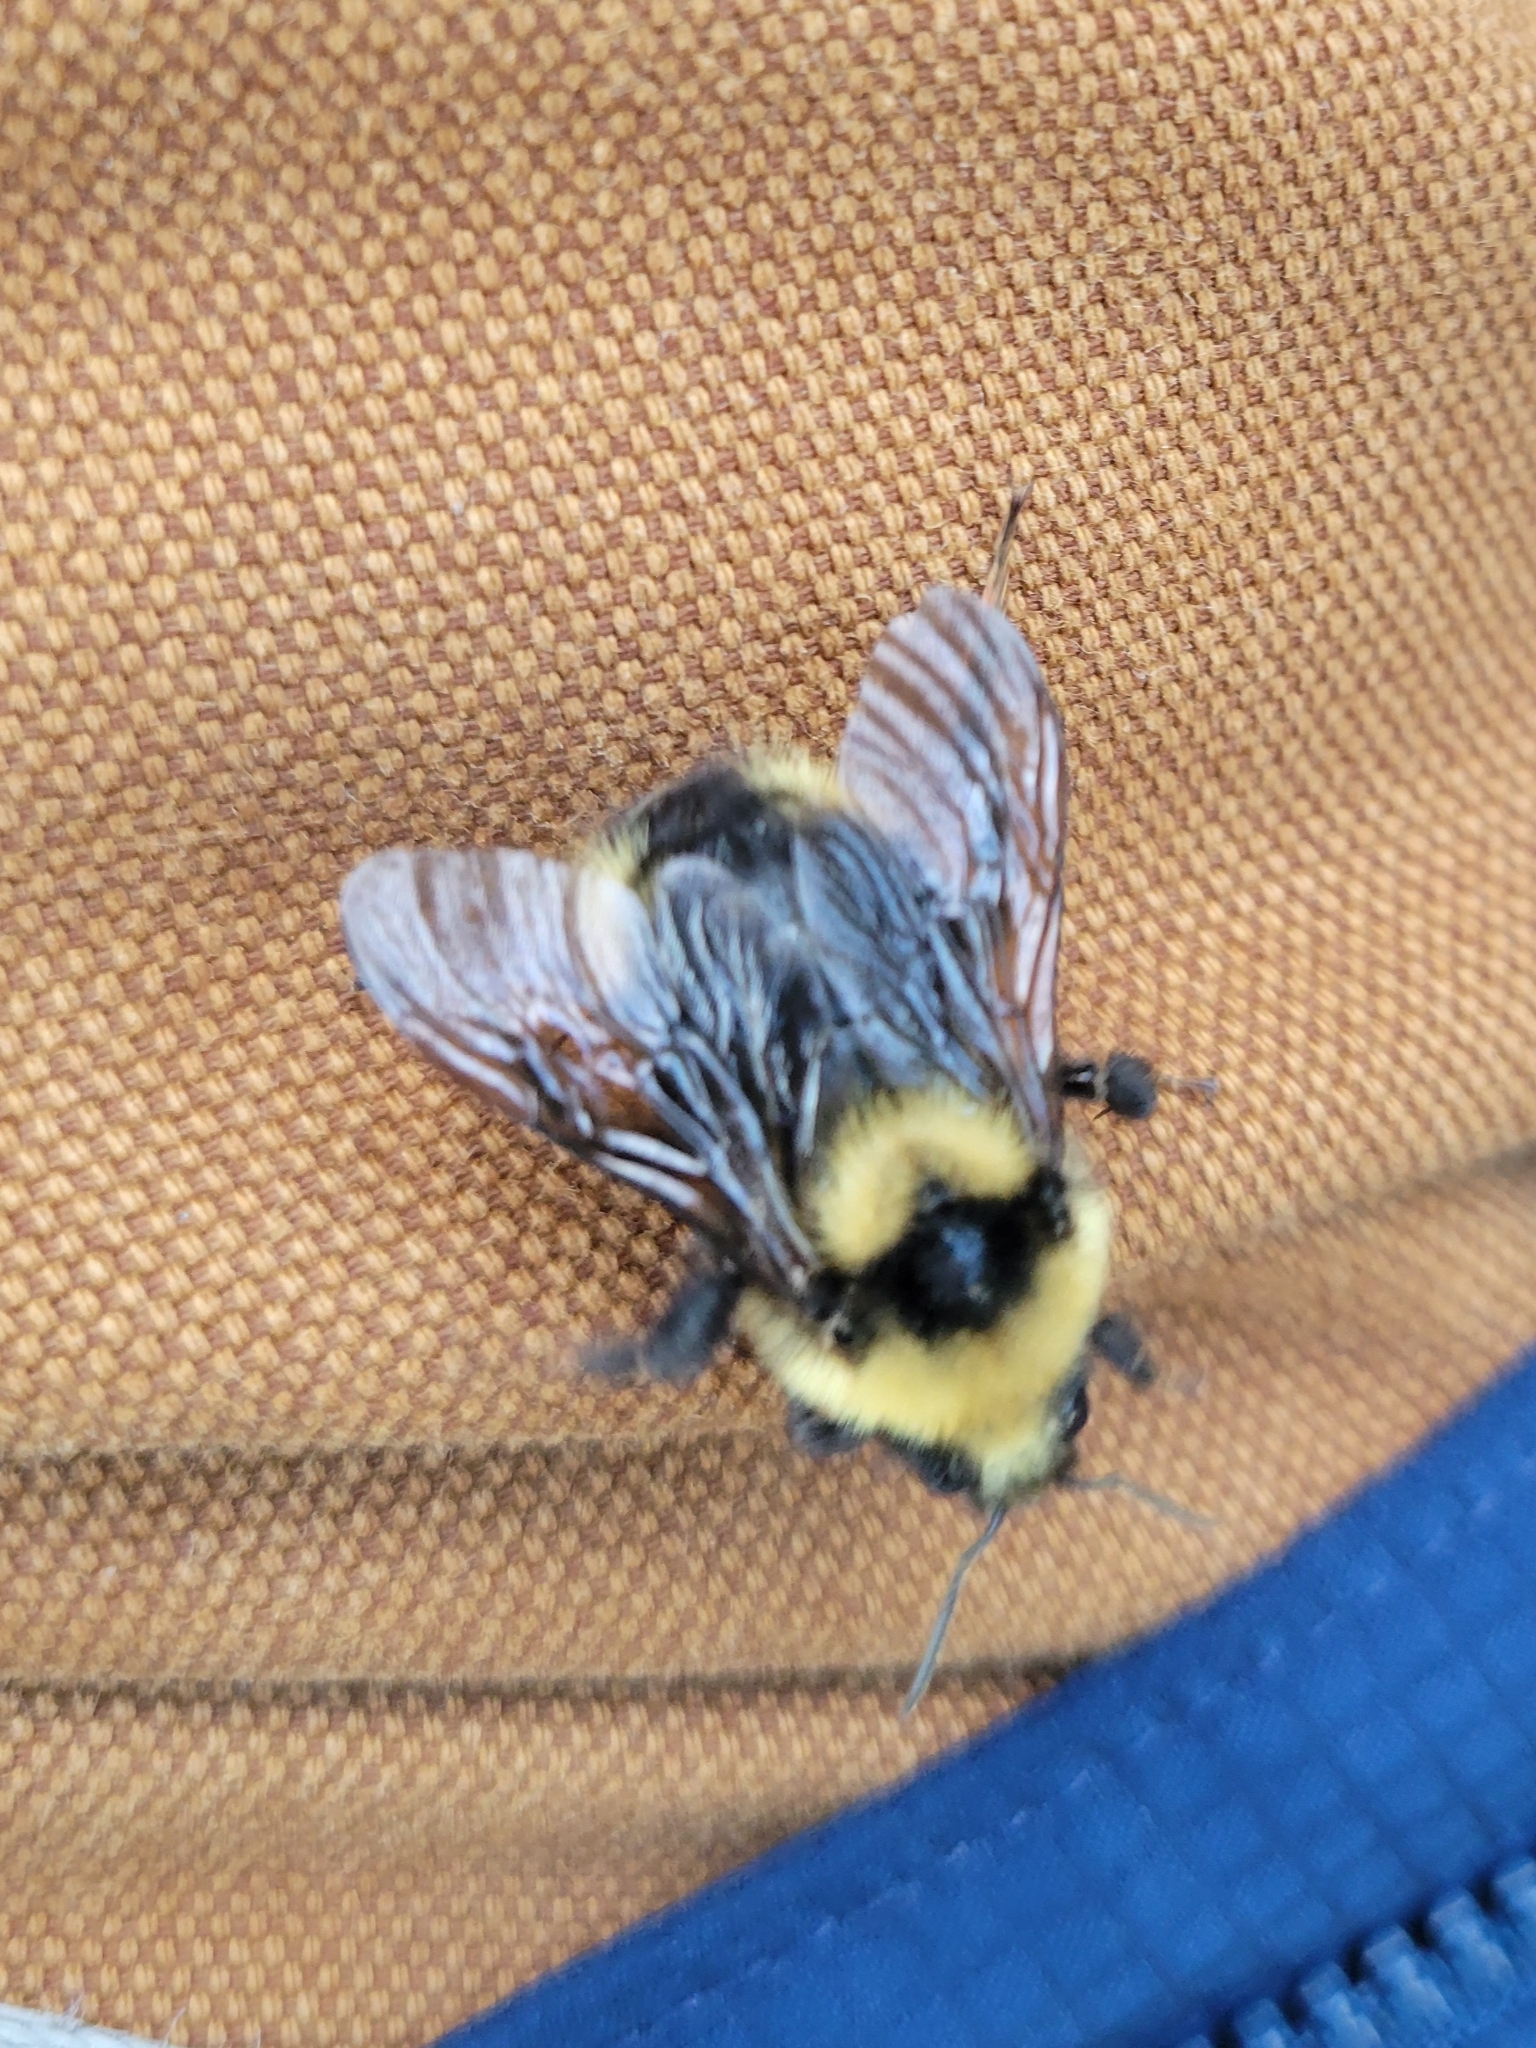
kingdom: Animalia
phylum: Arthropoda
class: Insecta
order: Hymenoptera
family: Apidae
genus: Bombus
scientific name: Bombus insularis
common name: Indiscriminate cuckoo bumble bee
